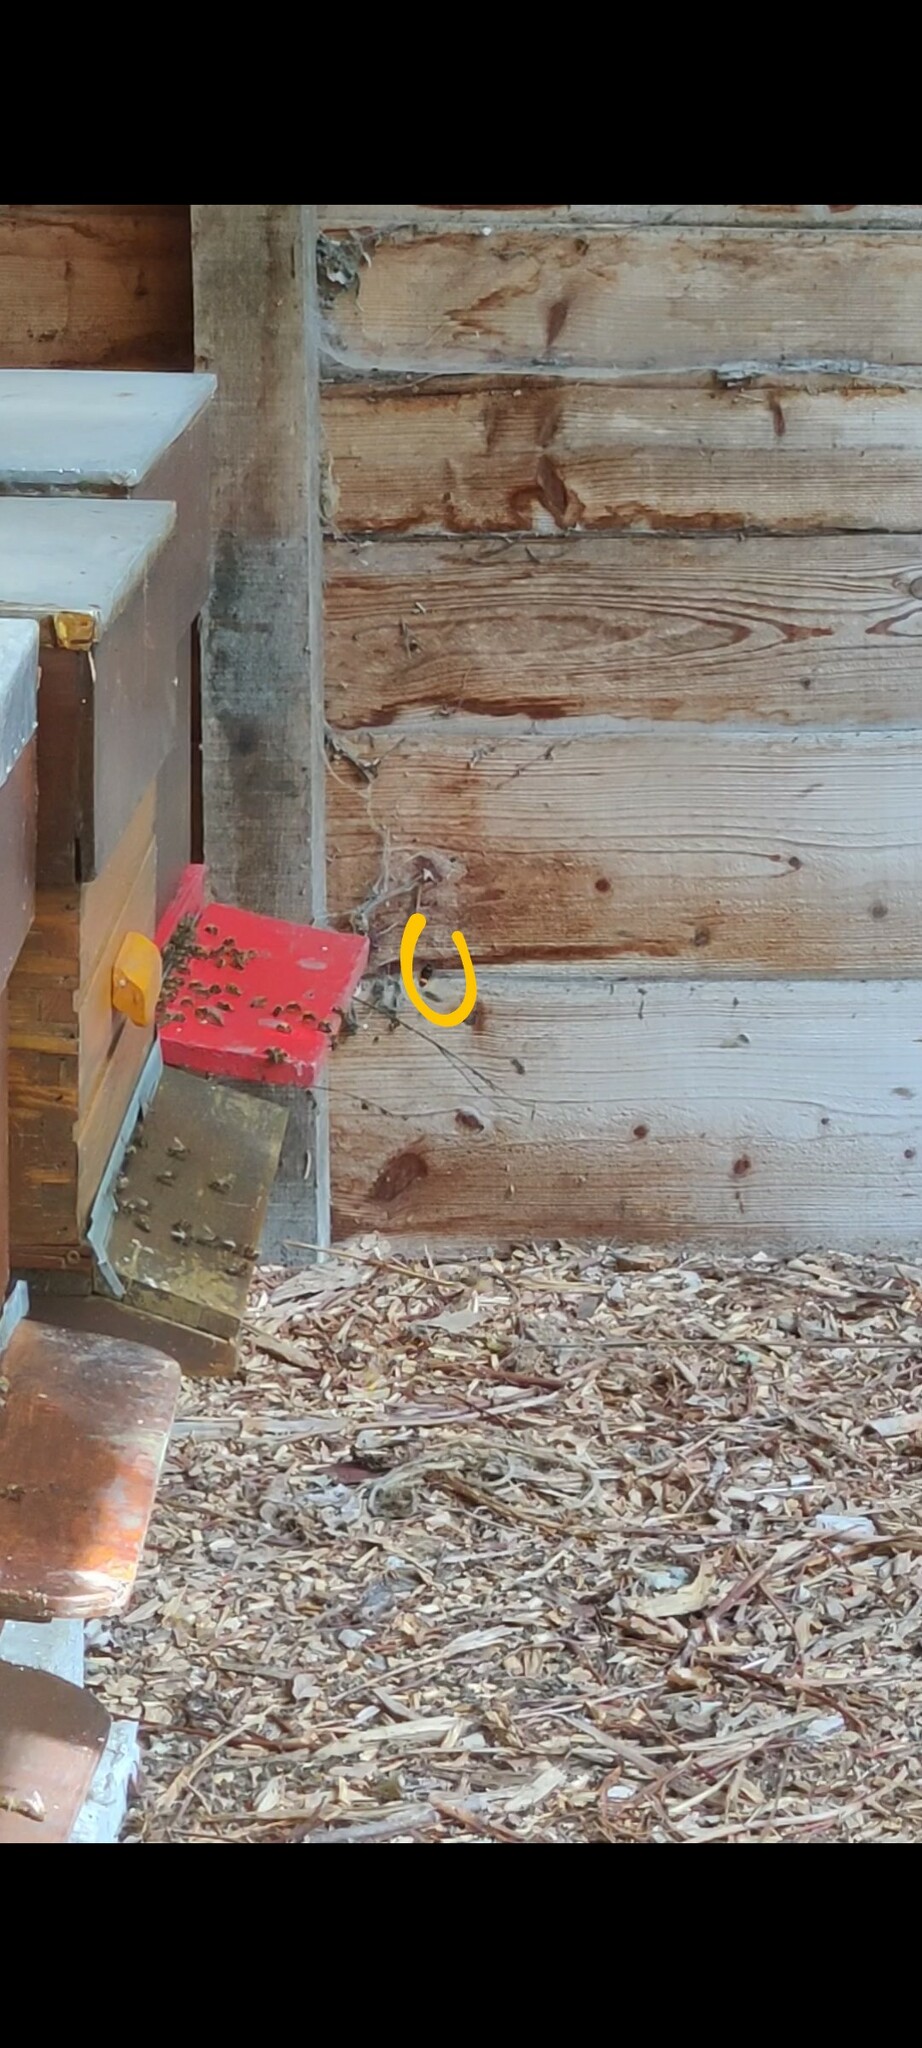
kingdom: Animalia
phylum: Arthropoda
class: Insecta
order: Hymenoptera
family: Vespidae
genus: Vespa
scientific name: Vespa velutina
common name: Asian hornet
